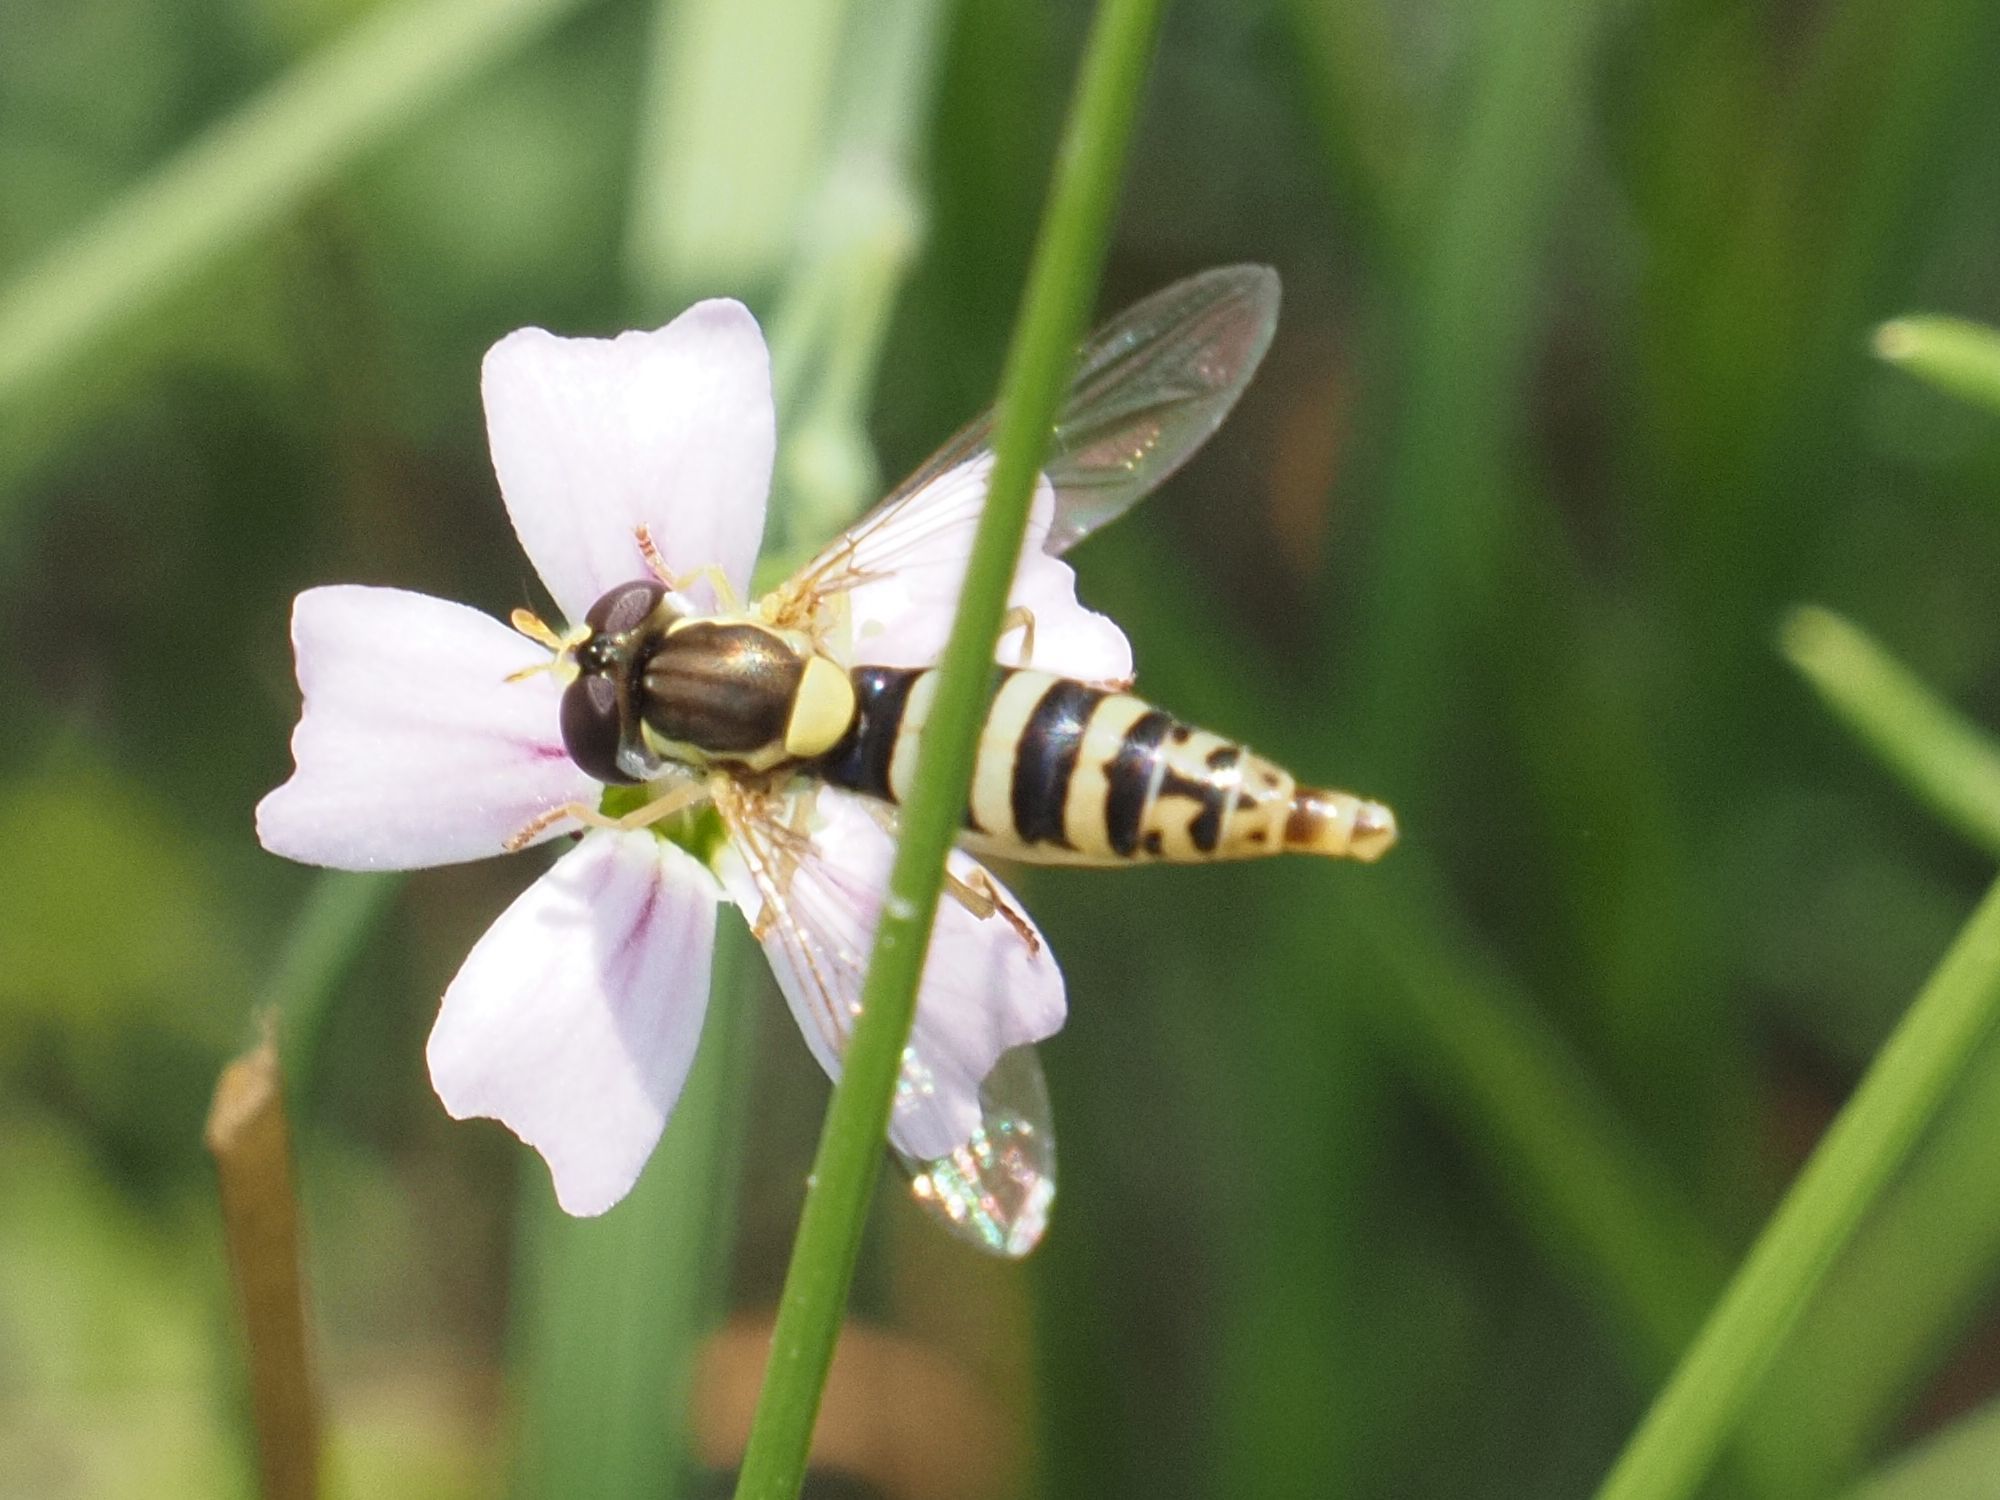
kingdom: Animalia
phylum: Arthropoda
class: Insecta
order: Diptera
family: Syrphidae
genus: Sphaerophoria
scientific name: Sphaerophoria
